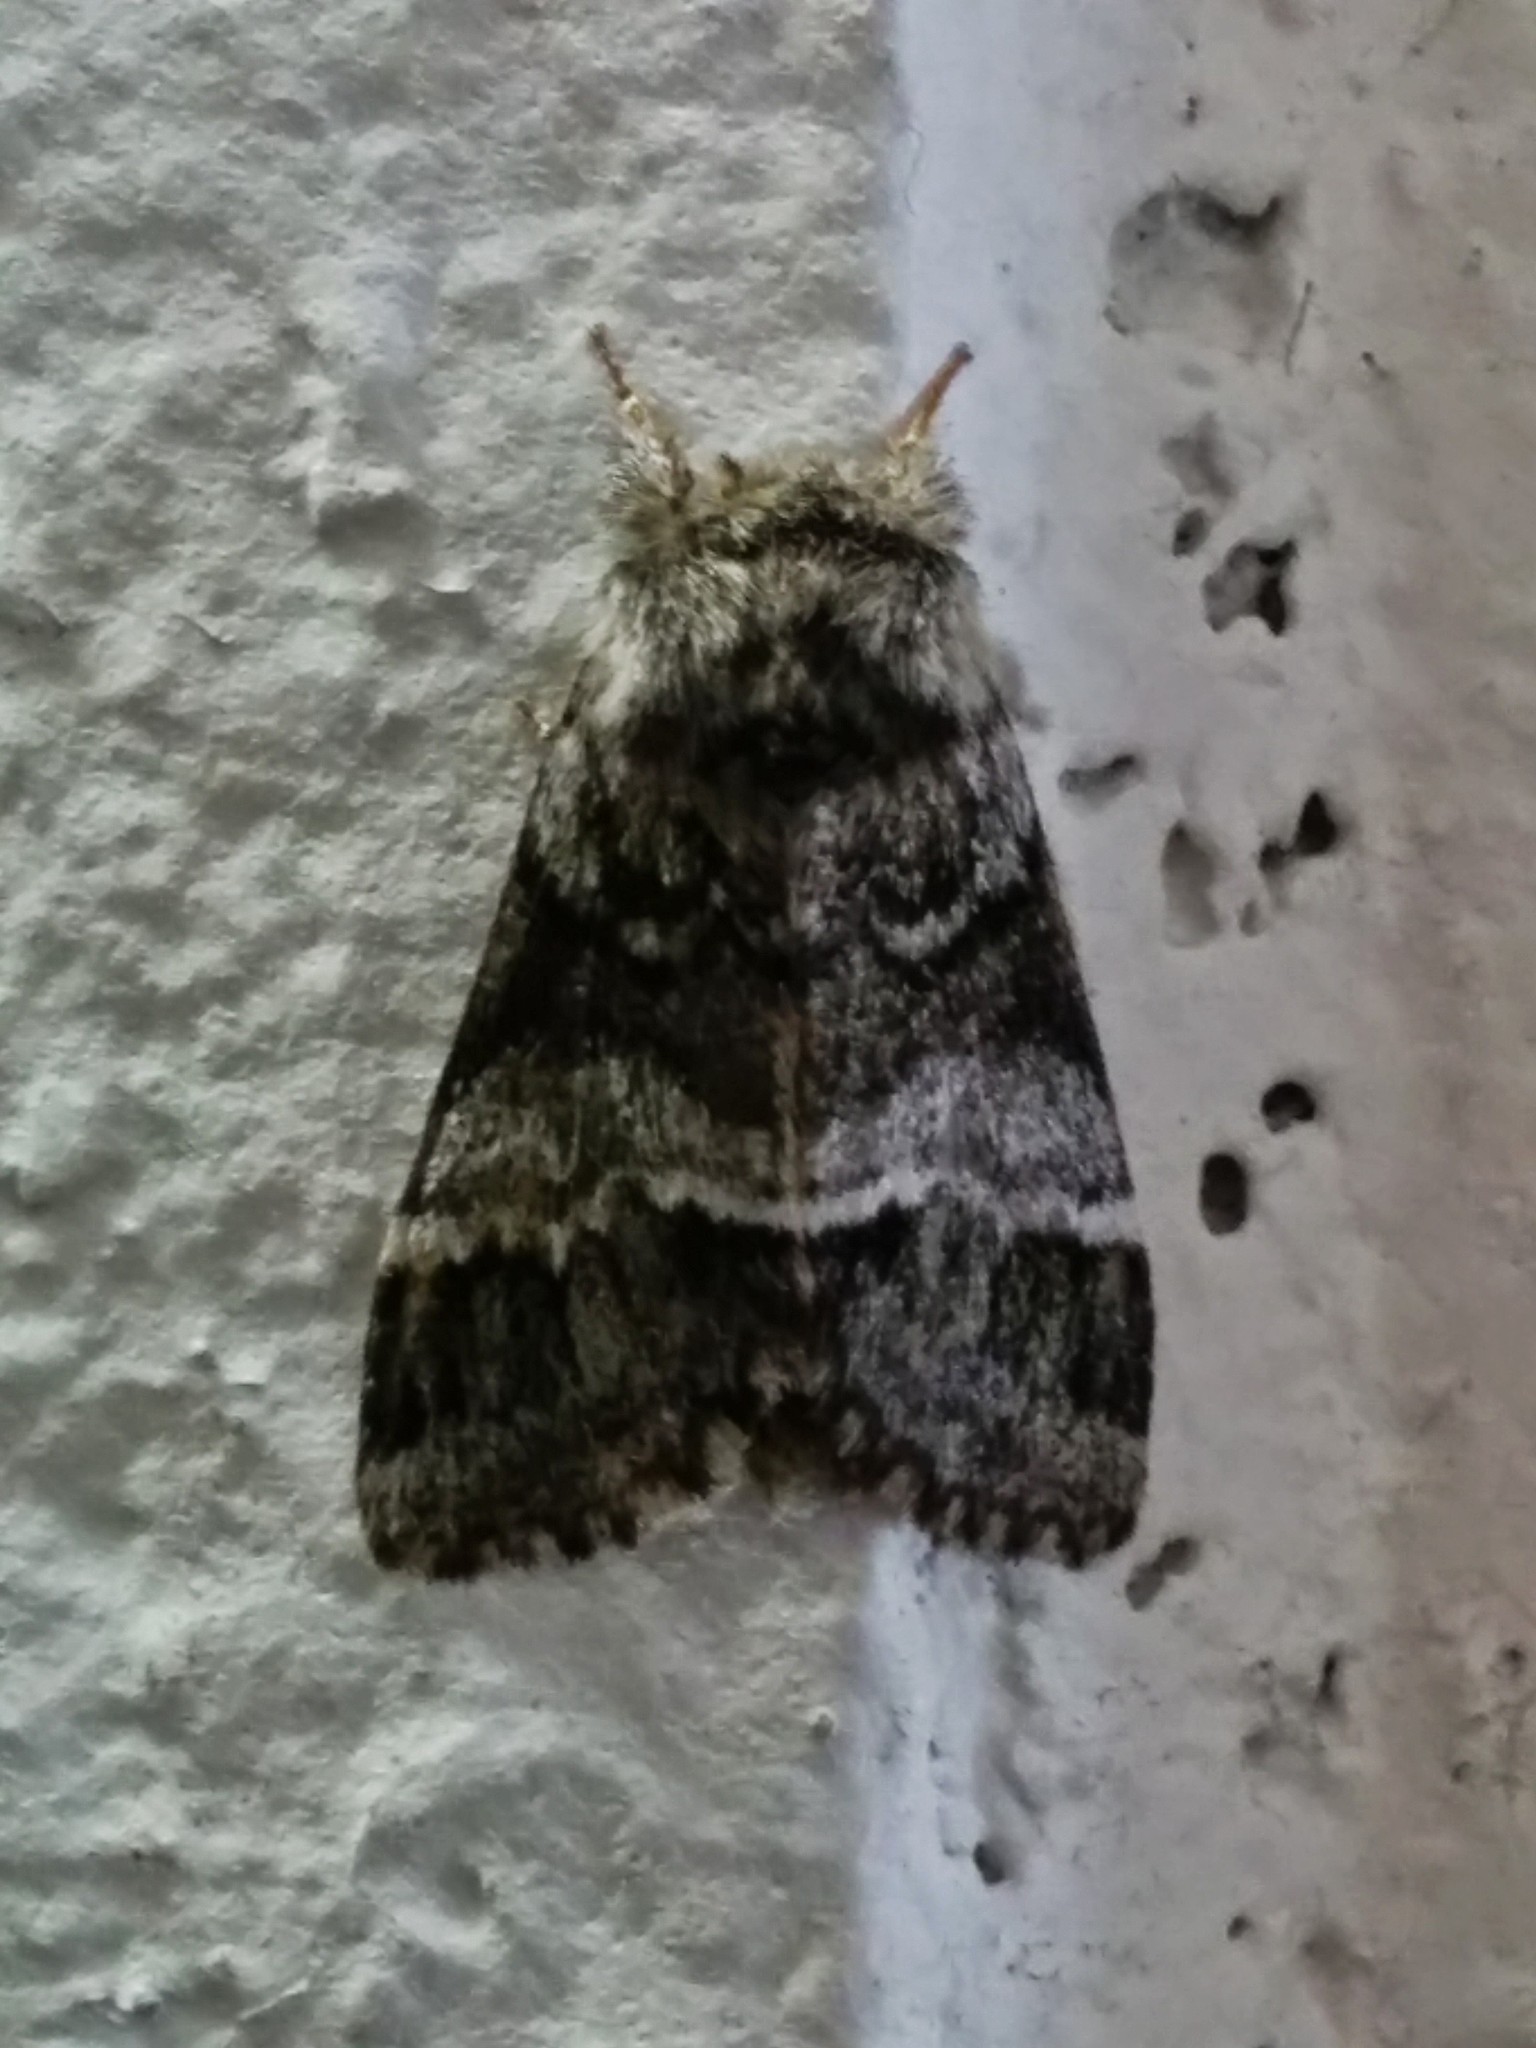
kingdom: Animalia
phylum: Arthropoda
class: Insecta
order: Lepidoptera
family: Notodontidae
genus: Drymonia
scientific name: Drymonia dodonaea
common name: Marbled brown
